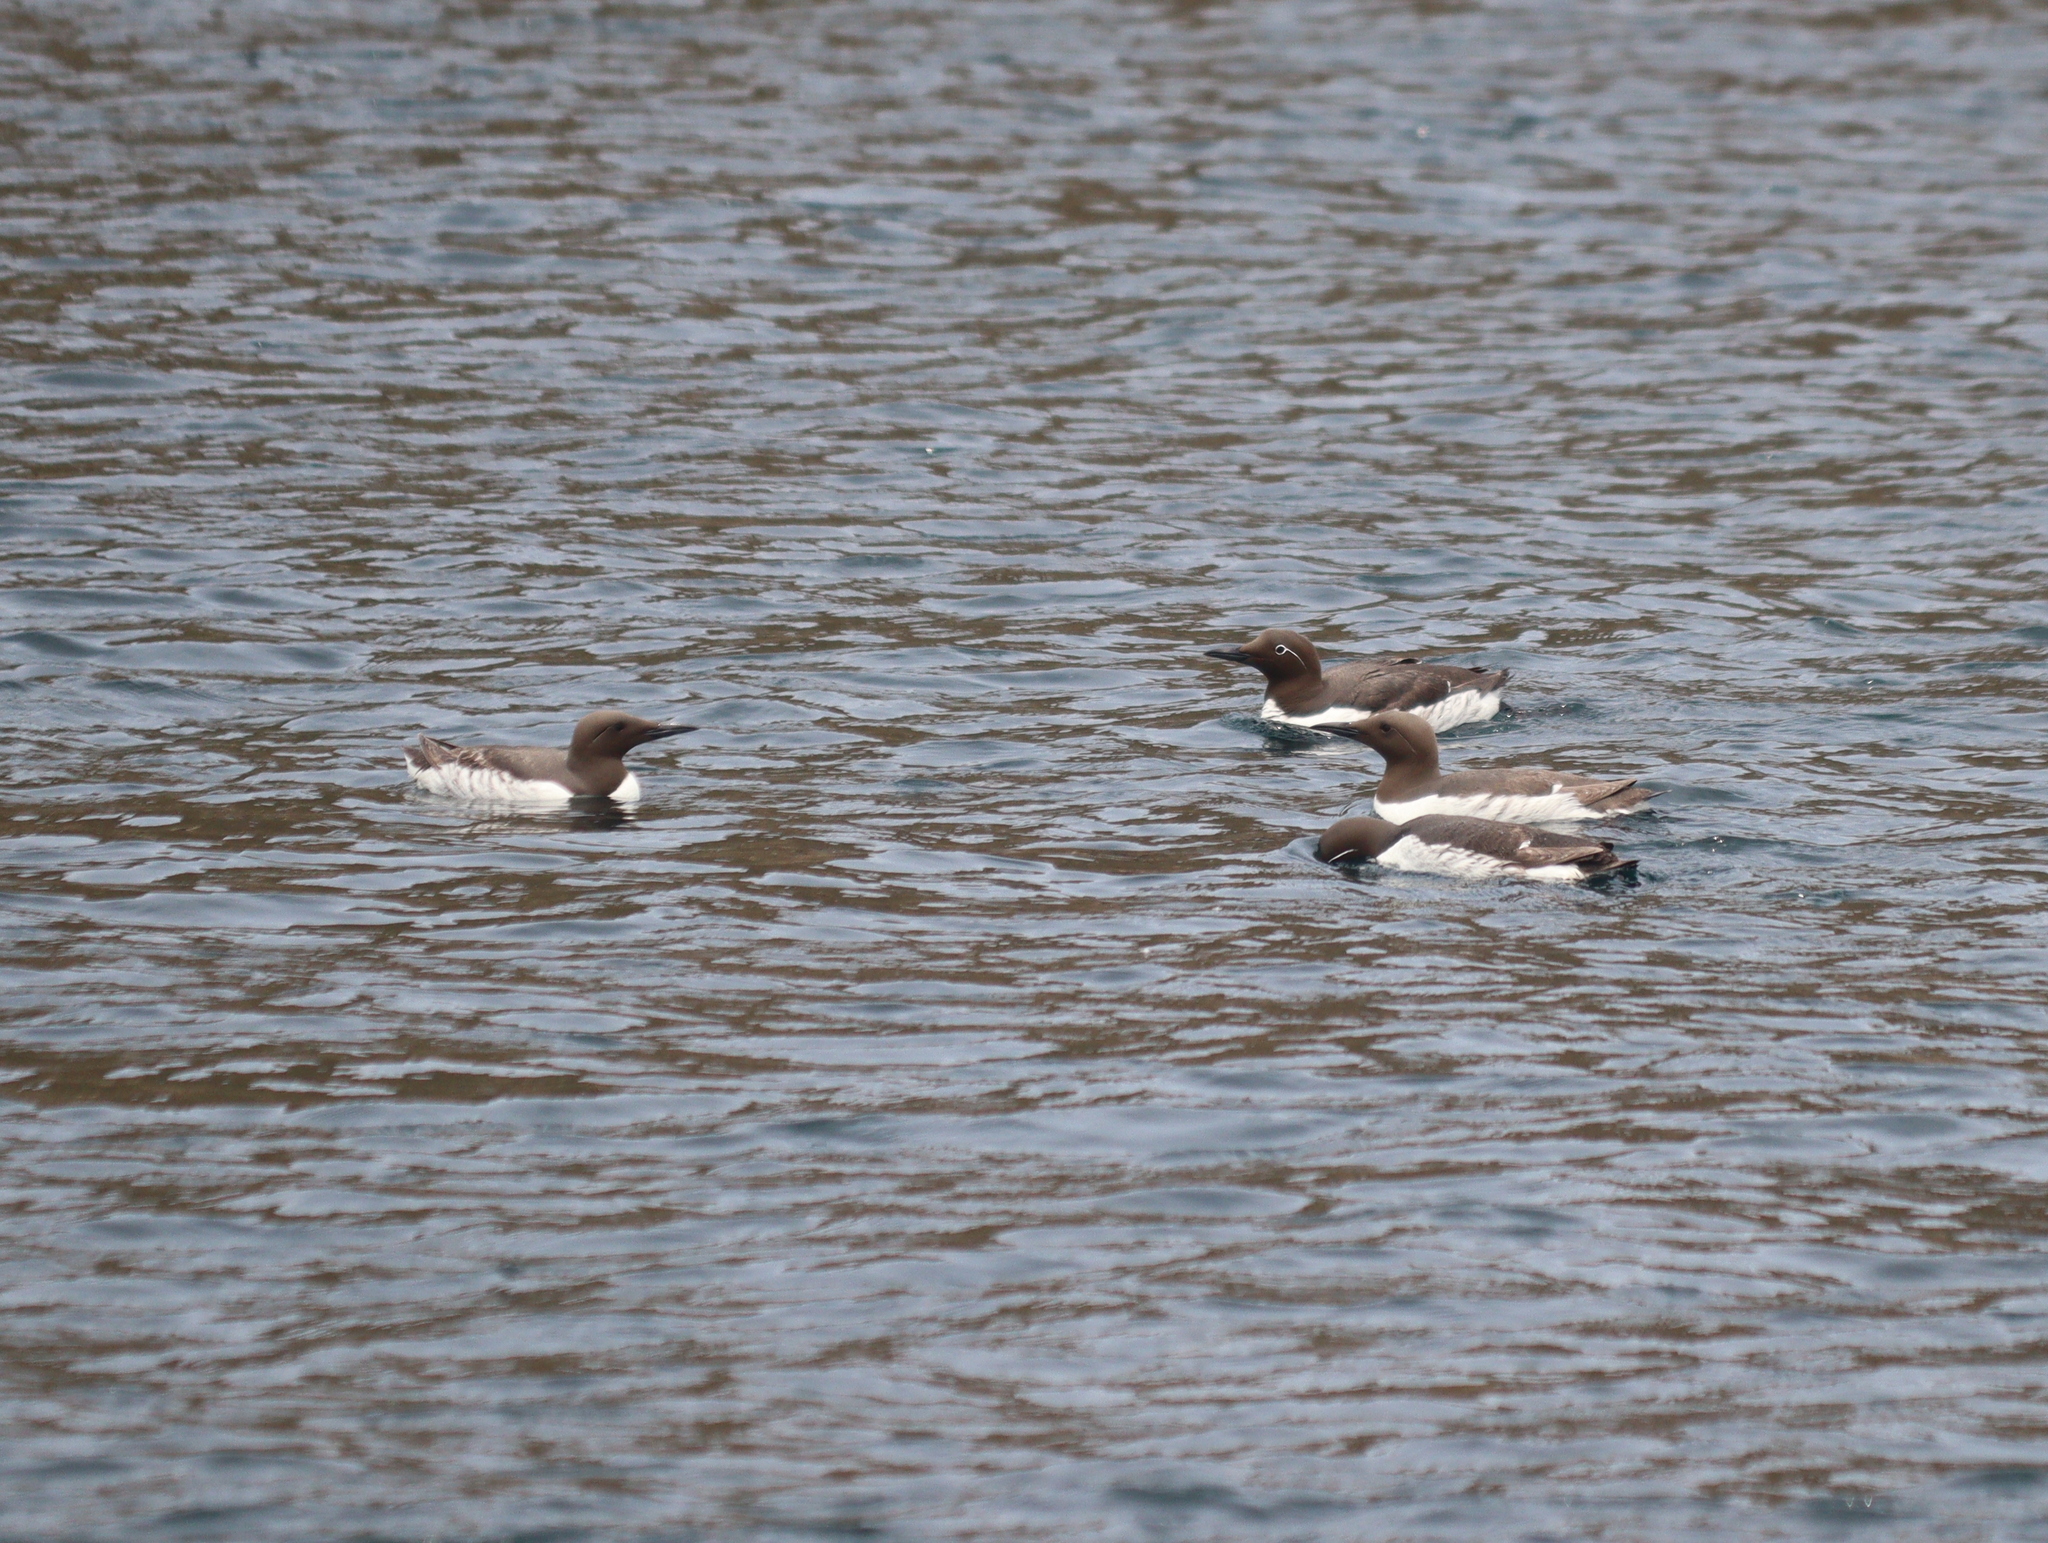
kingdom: Animalia
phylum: Chordata
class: Aves
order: Charadriiformes
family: Alcidae
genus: Uria
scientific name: Uria aalge
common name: Common murre
